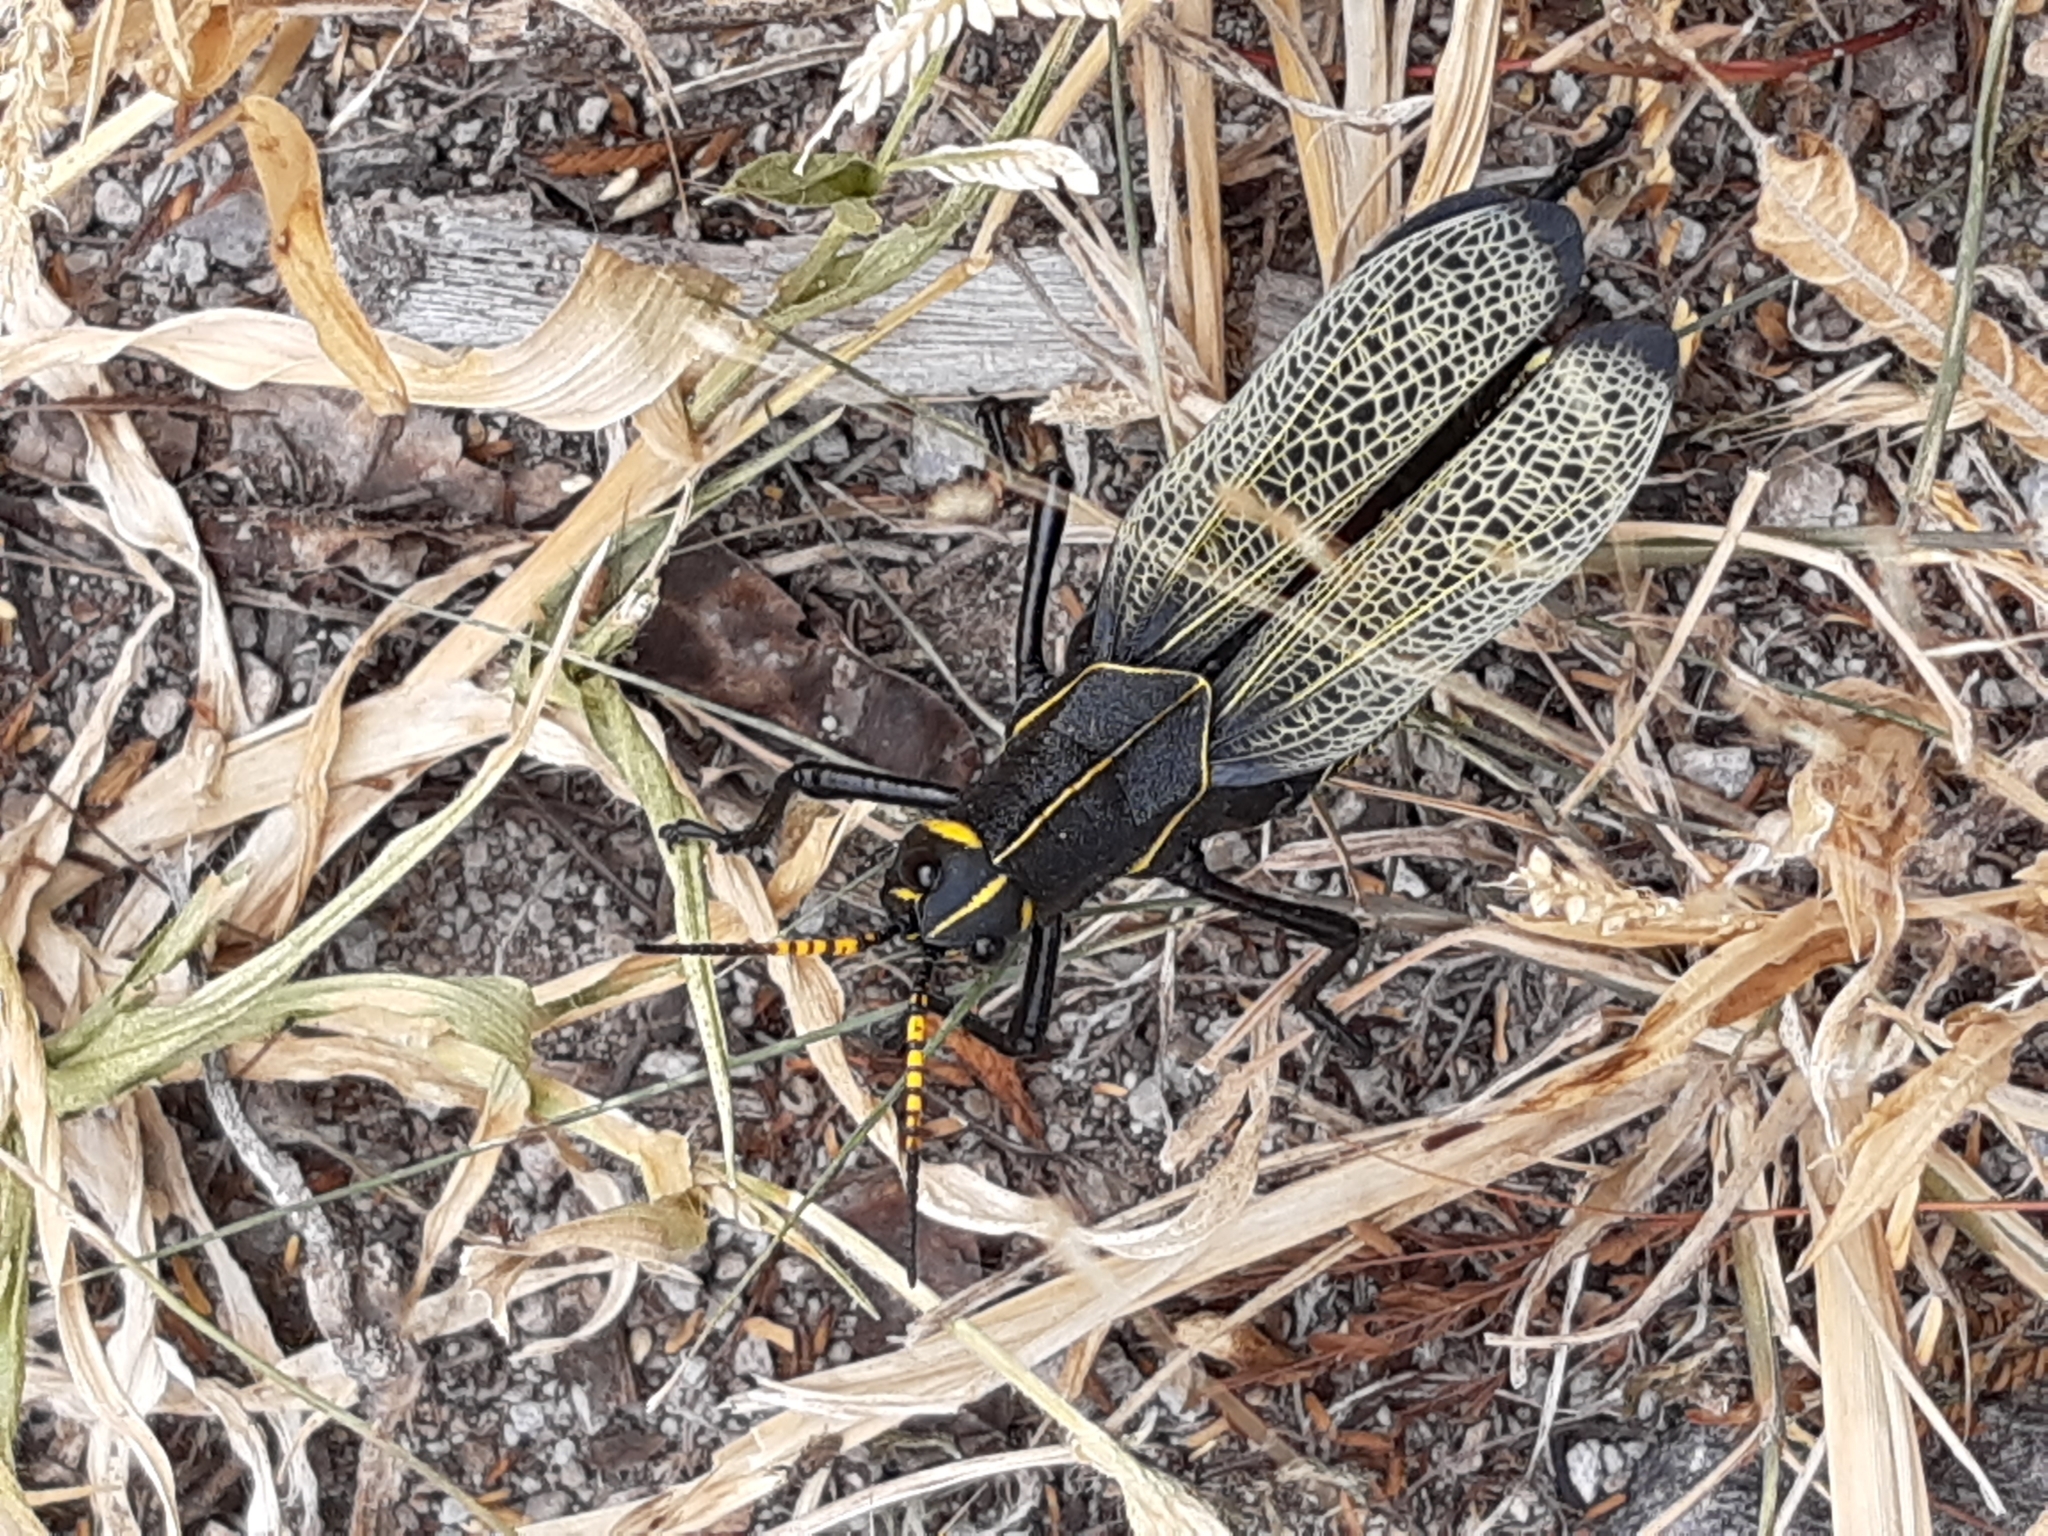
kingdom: Animalia
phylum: Arthropoda
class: Insecta
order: Orthoptera
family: Romaleidae
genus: Romalea
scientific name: Romalea
